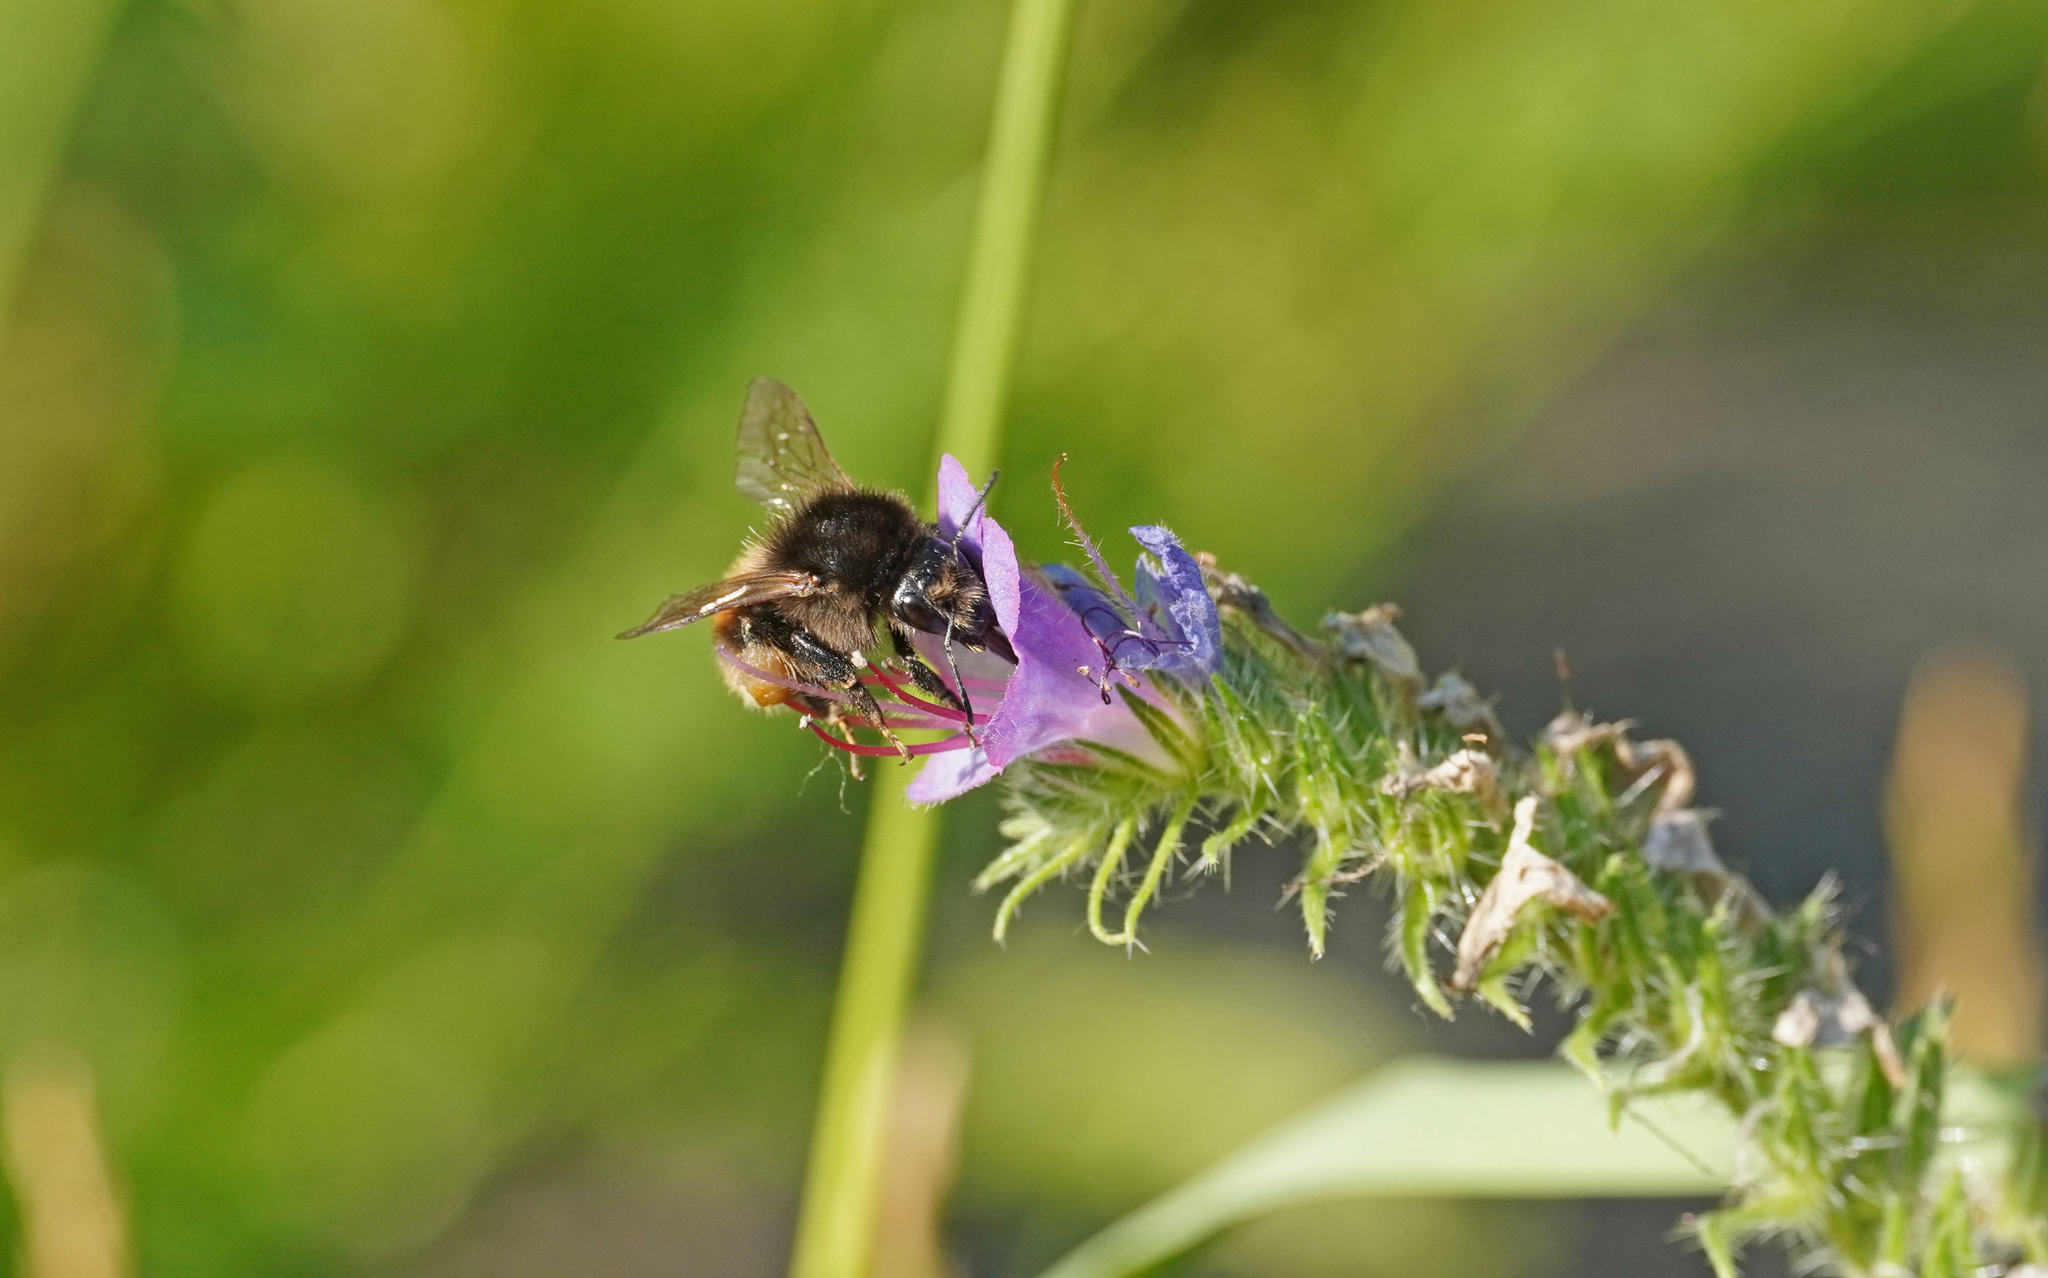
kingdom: Animalia
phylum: Arthropoda
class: Insecta
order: Hymenoptera
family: Apidae
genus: Bombus
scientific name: Bombus humilis
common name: Brown-banded carder-bee
